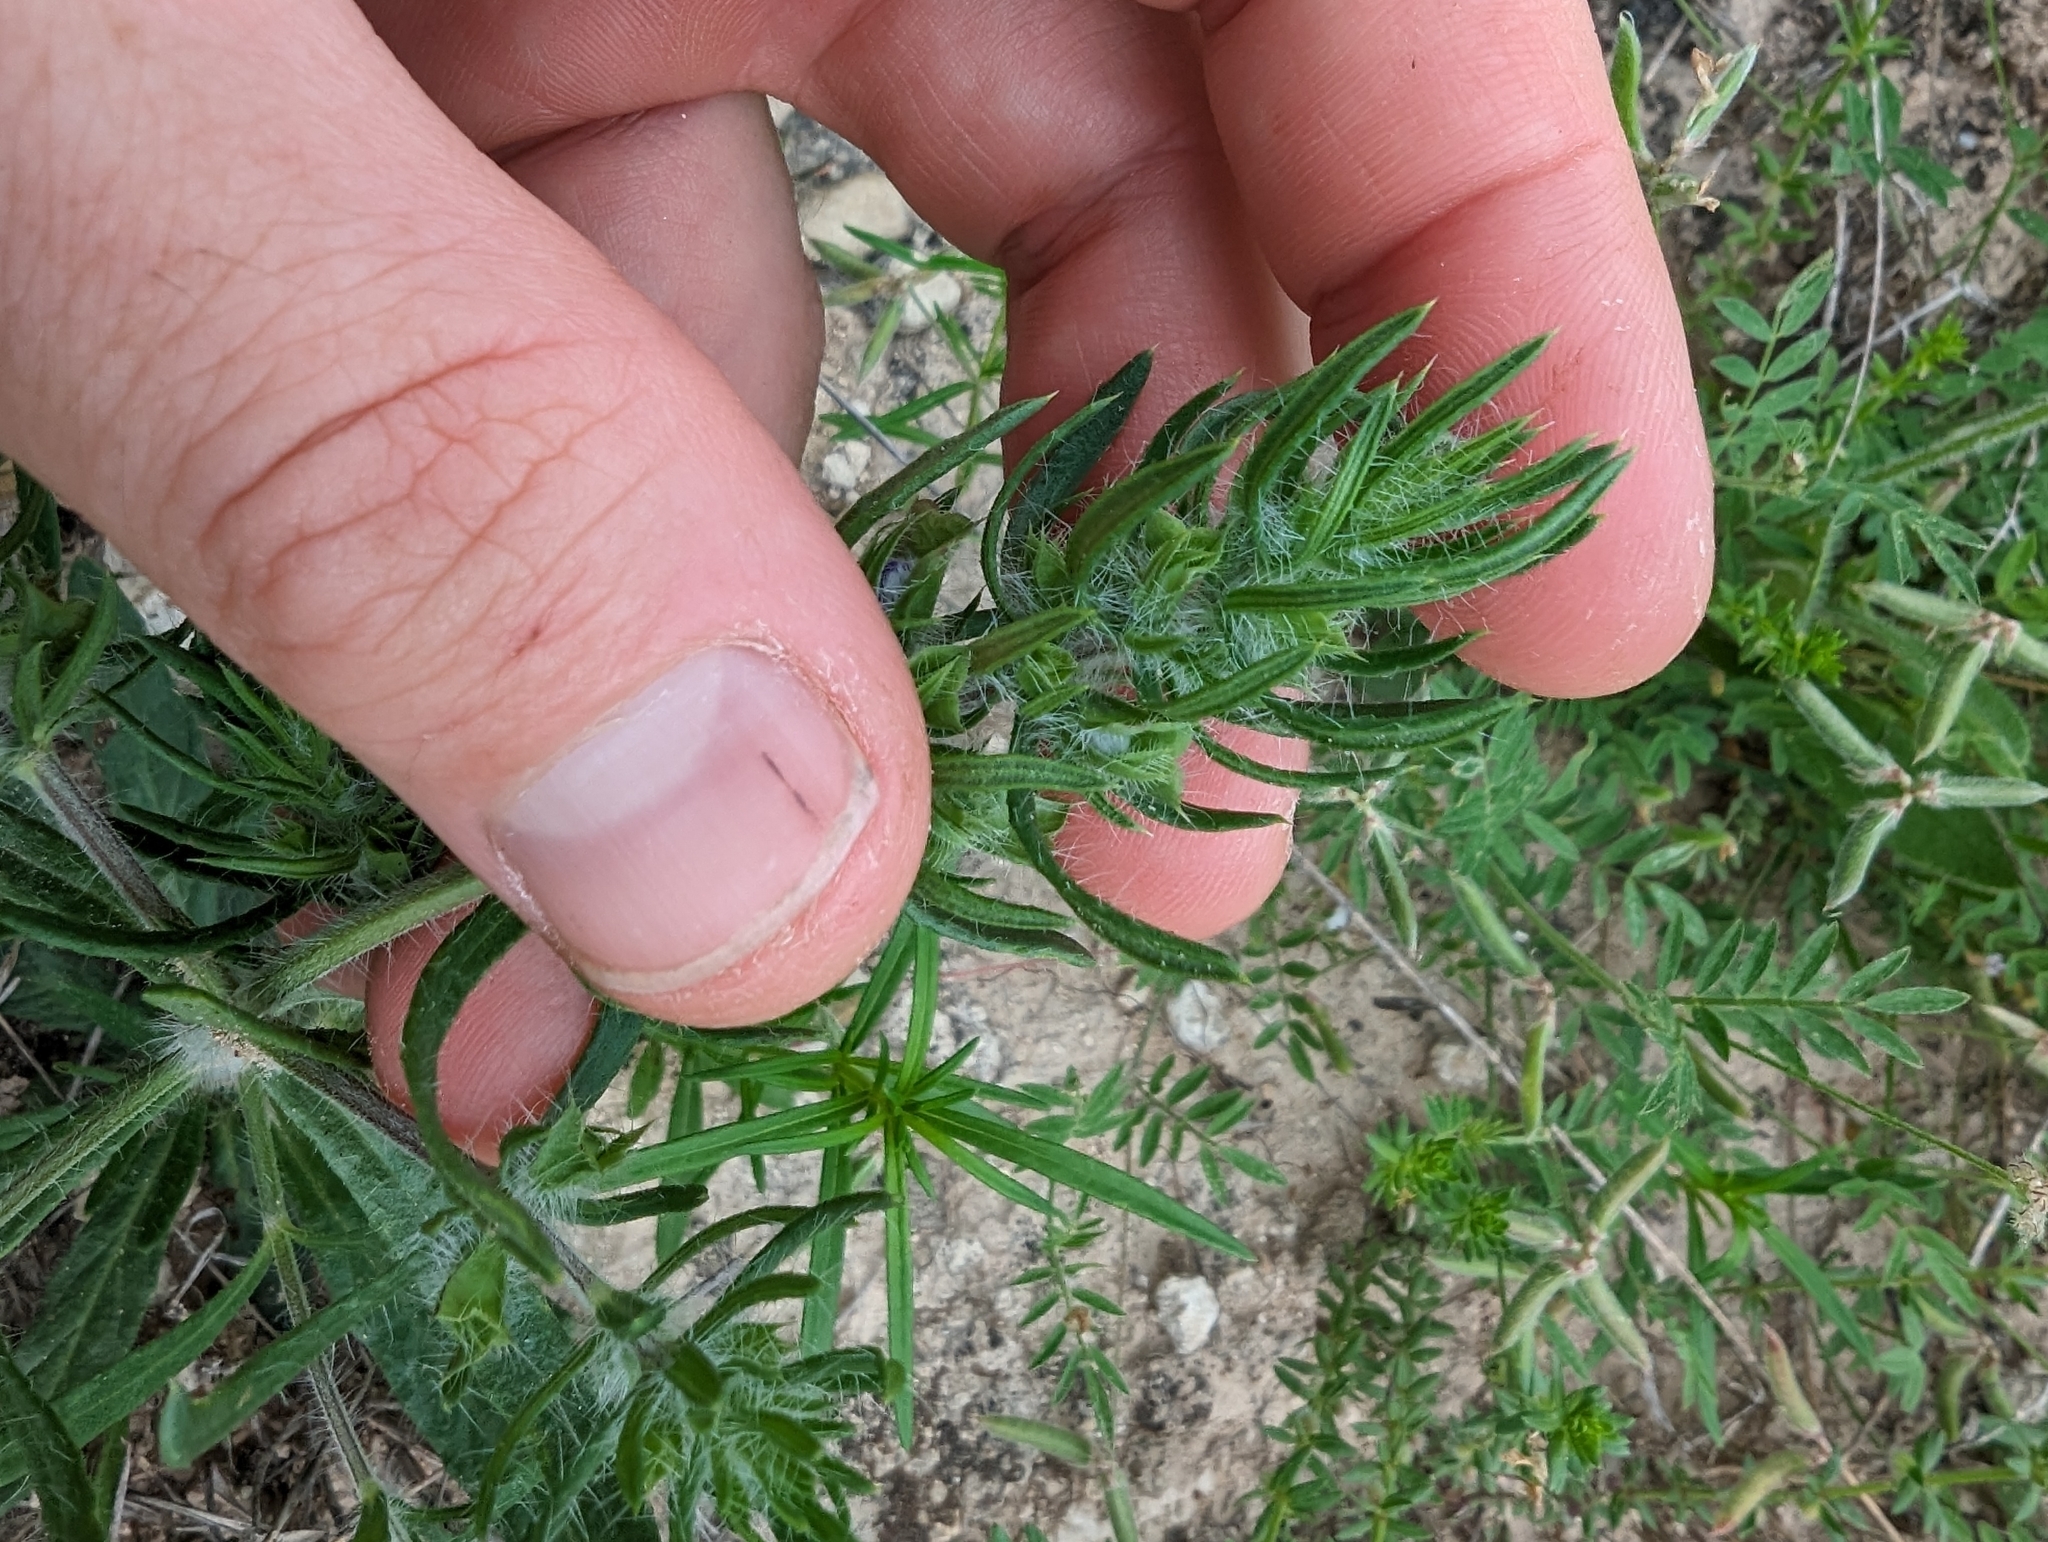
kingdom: Plantae
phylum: Tracheophyta
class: Magnoliopsida
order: Lamiales
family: Lamiaceae
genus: Salvia
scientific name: Salvia texana
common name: Texas sage
